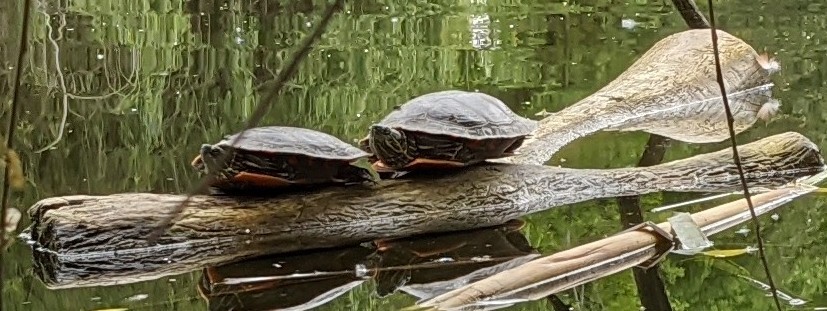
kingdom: Animalia
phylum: Chordata
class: Testudines
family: Emydidae
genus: Chrysemys
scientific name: Chrysemys picta
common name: Painted turtle
